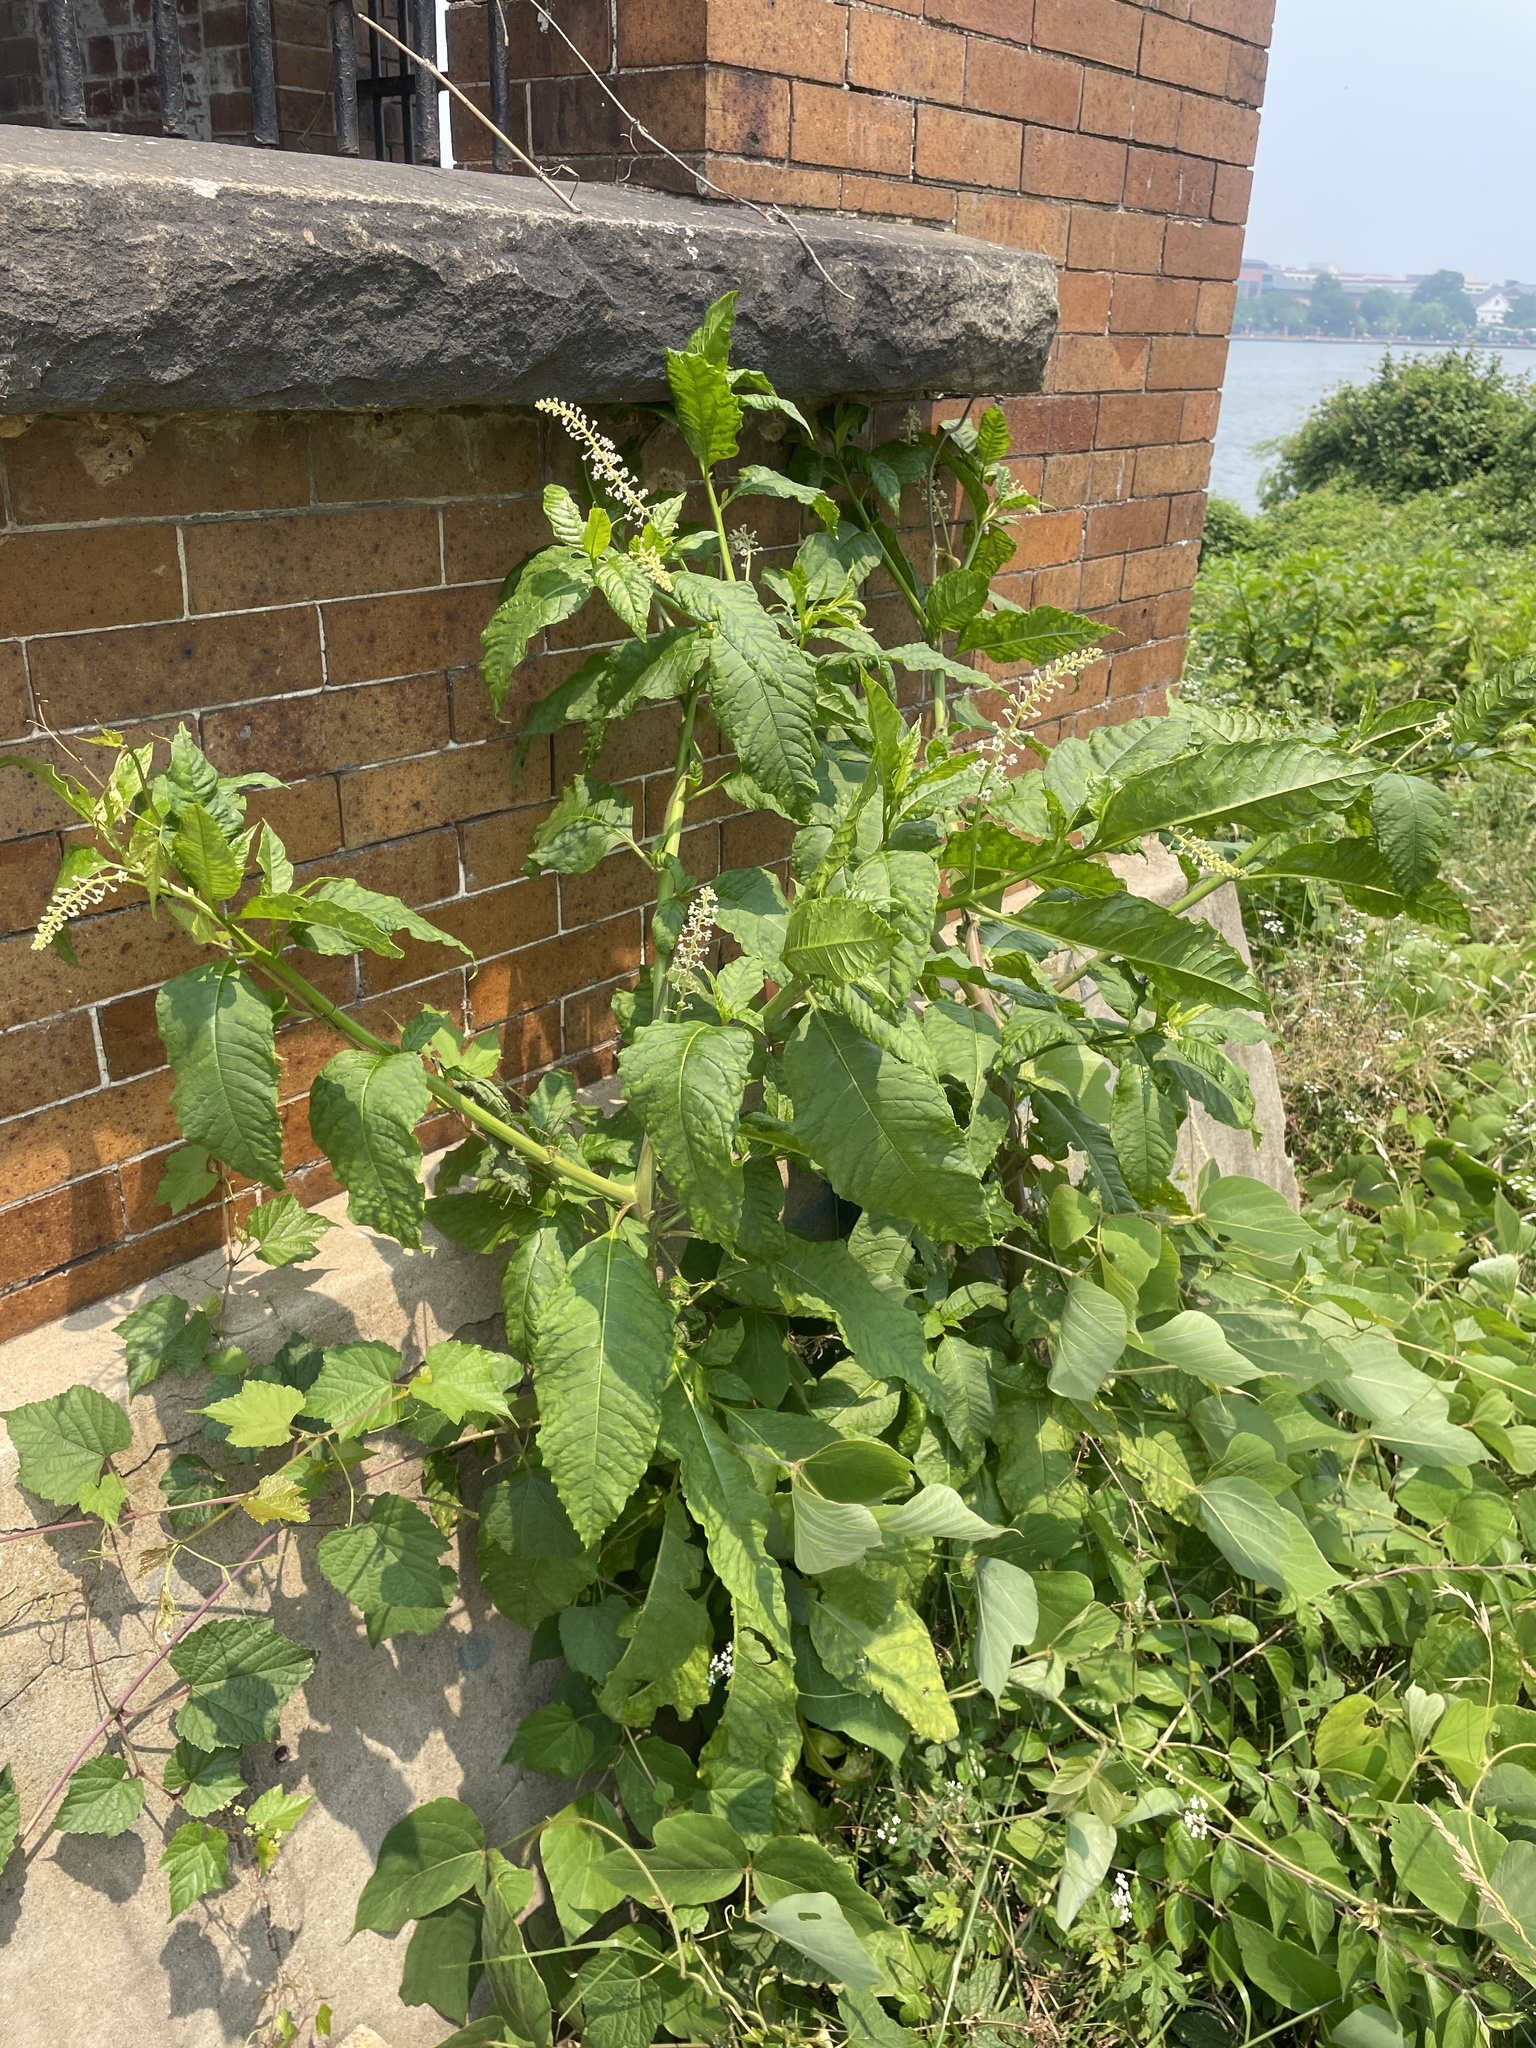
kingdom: Plantae
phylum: Tracheophyta
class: Magnoliopsida
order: Caryophyllales
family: Phytolaccaceae
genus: Phytolacca
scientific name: Phytolacca americana
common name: American pokeweed
